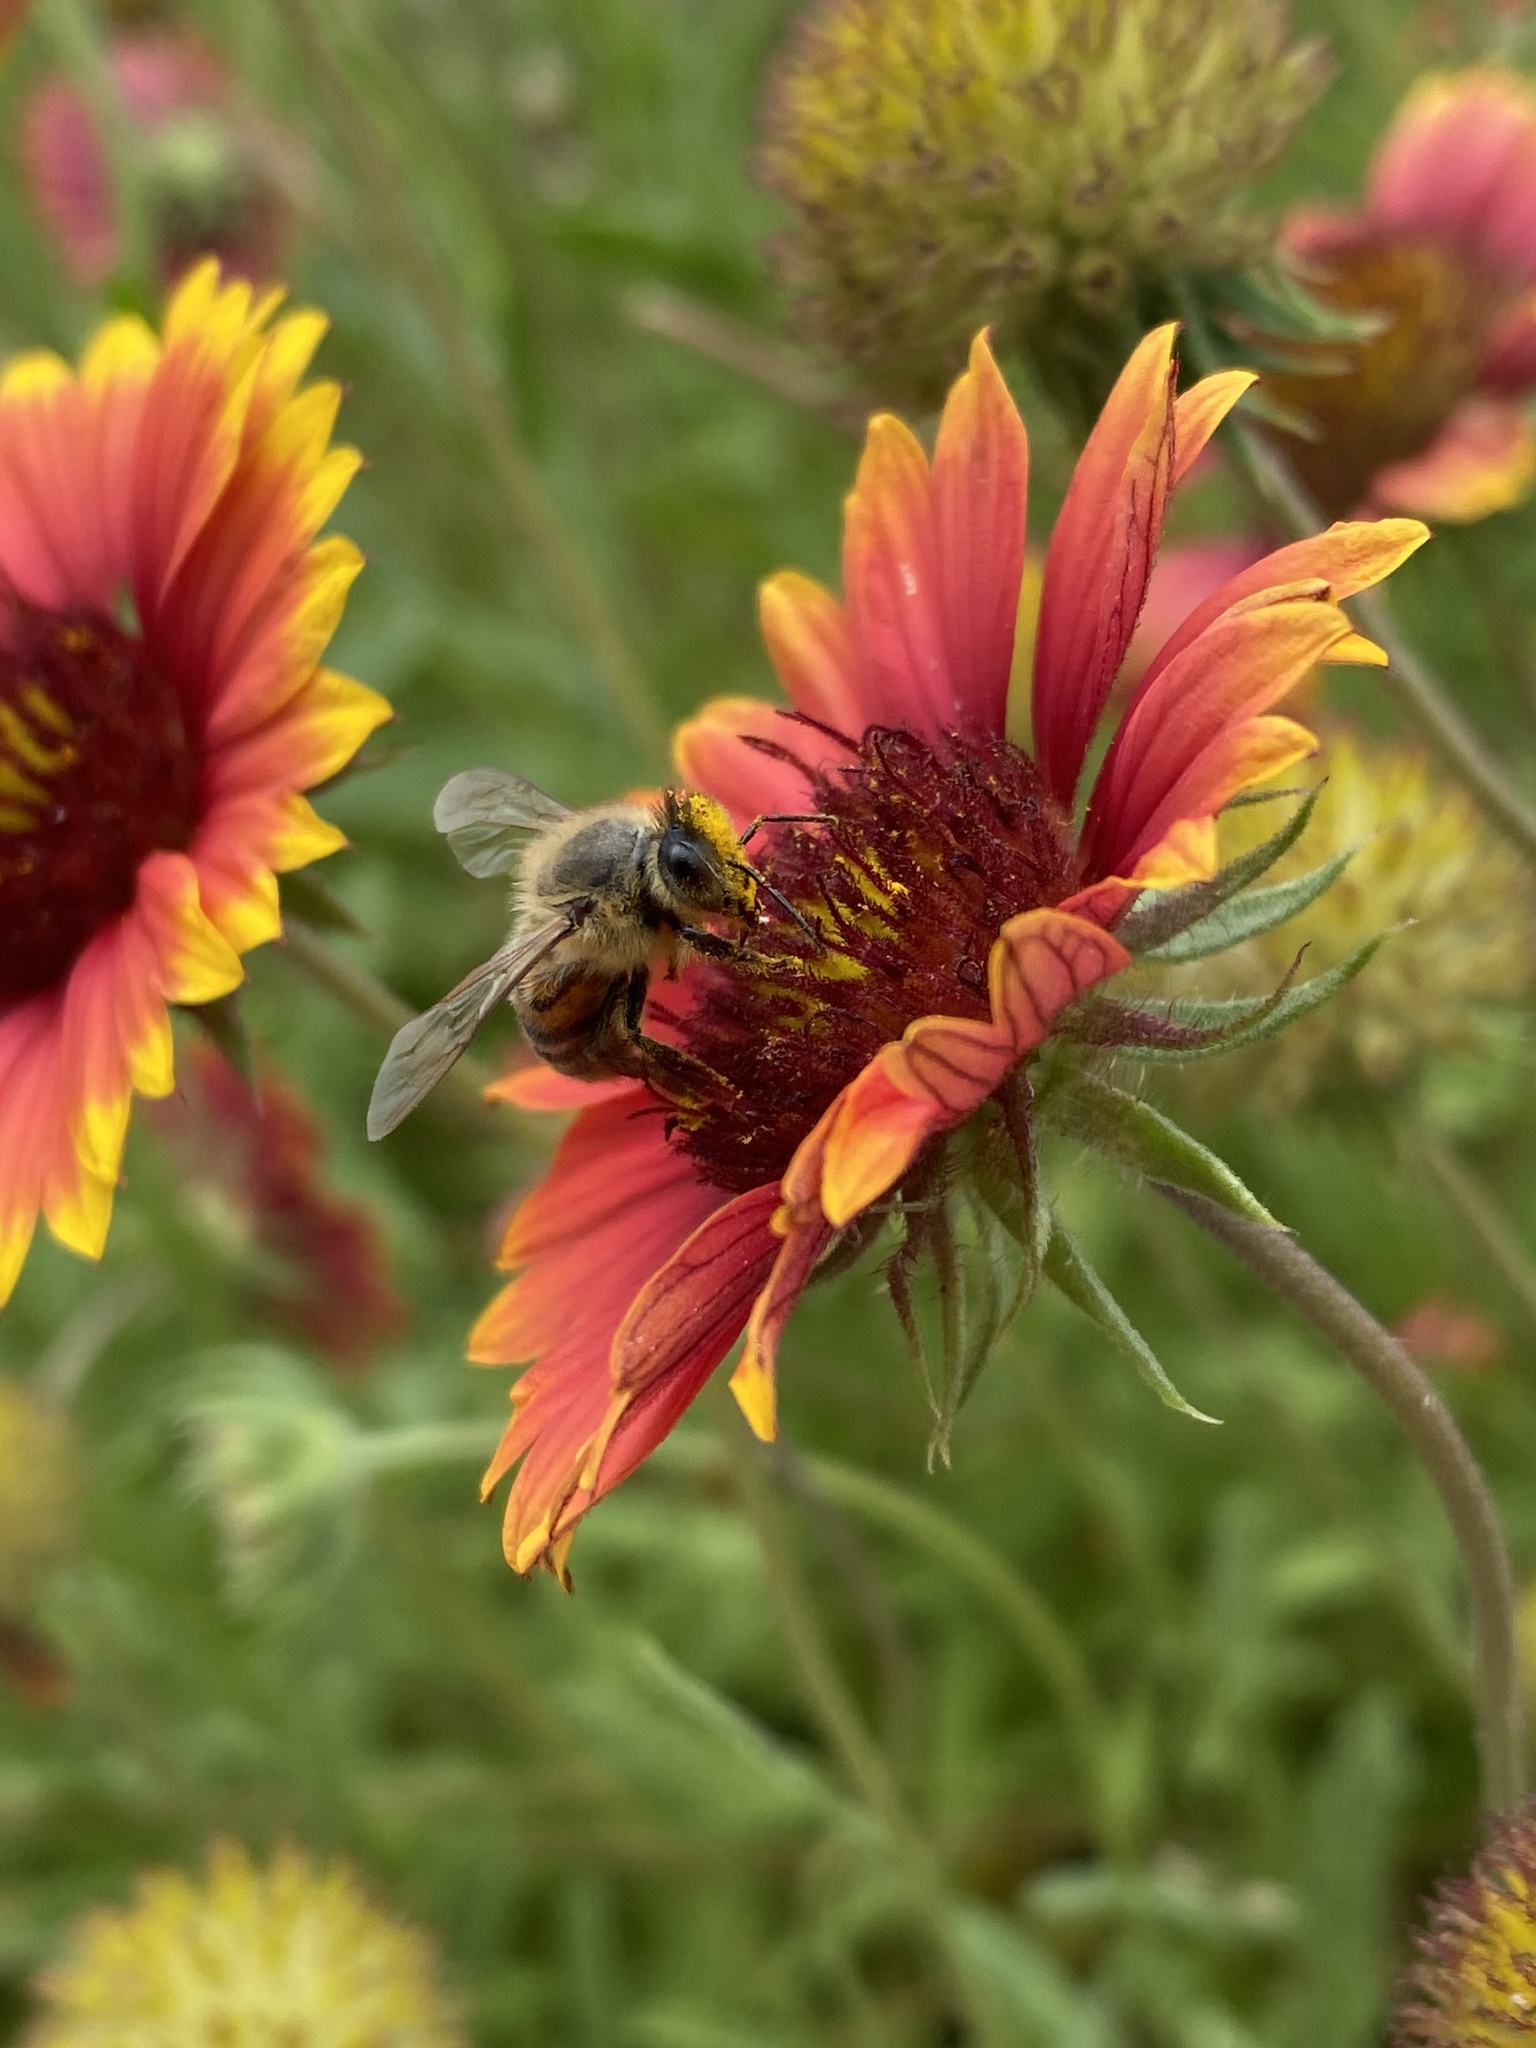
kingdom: Animalia
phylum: Arthropoda
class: Insecta
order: Hymenoptera
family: Apidae
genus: Apis
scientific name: Apis mellifera
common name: Honey bee
